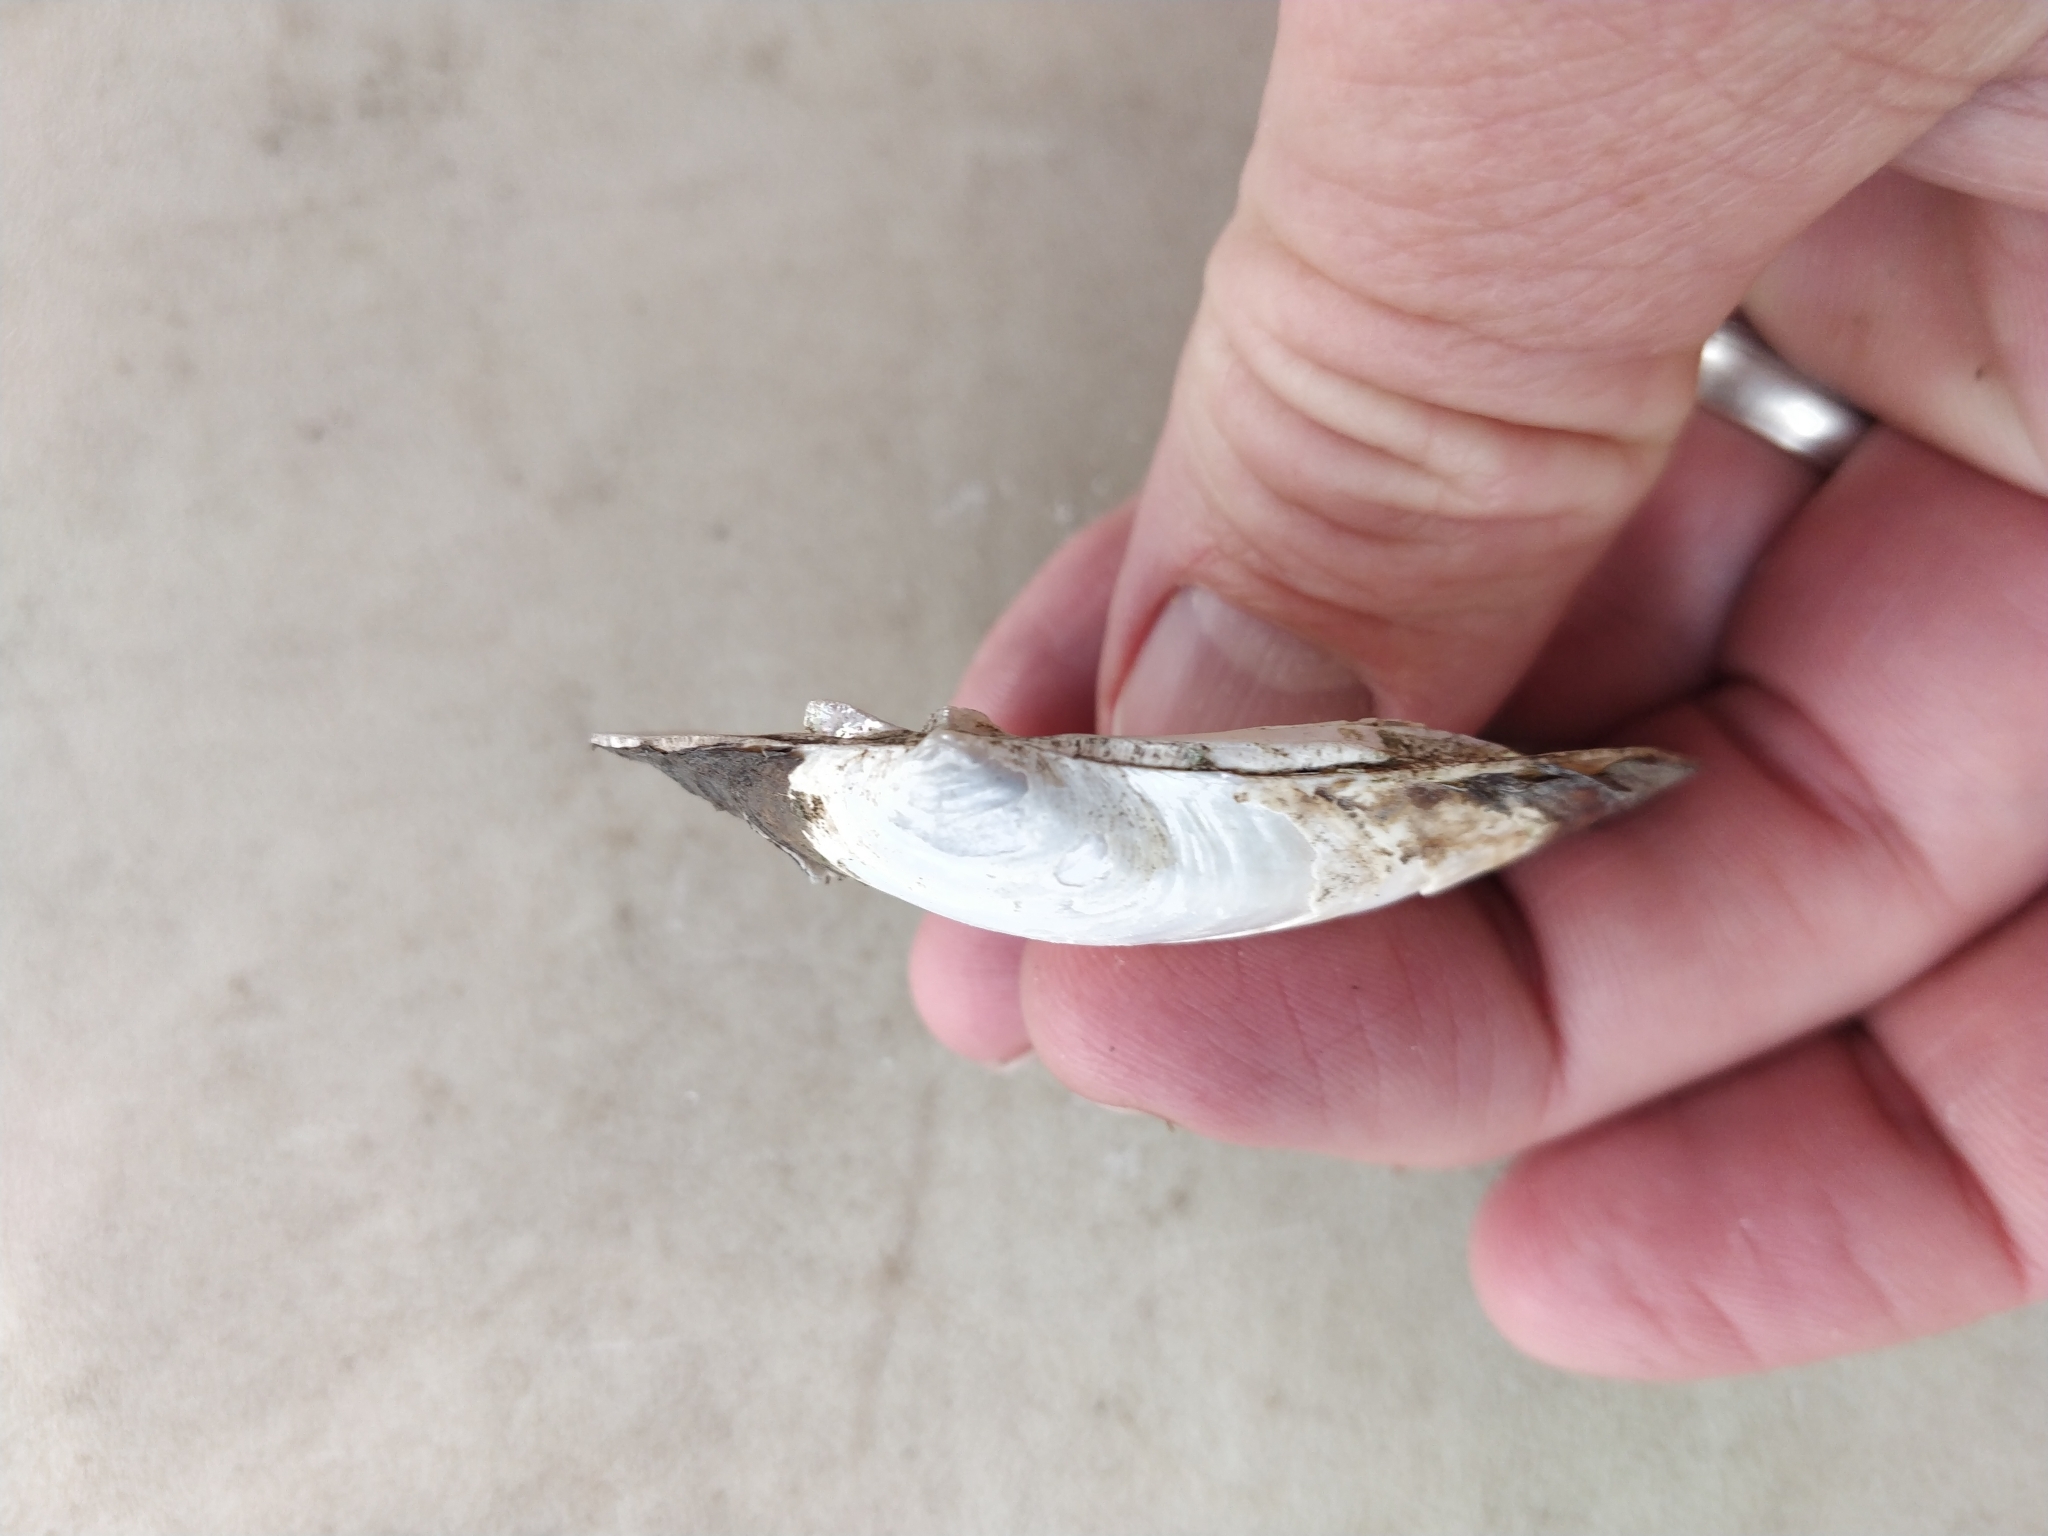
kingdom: Animalia
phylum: Mollusca
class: Bivalvia
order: Unionida
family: Unionidae
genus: Lasmigona
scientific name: Lasmigona compressa
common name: Creek heelsplitter
